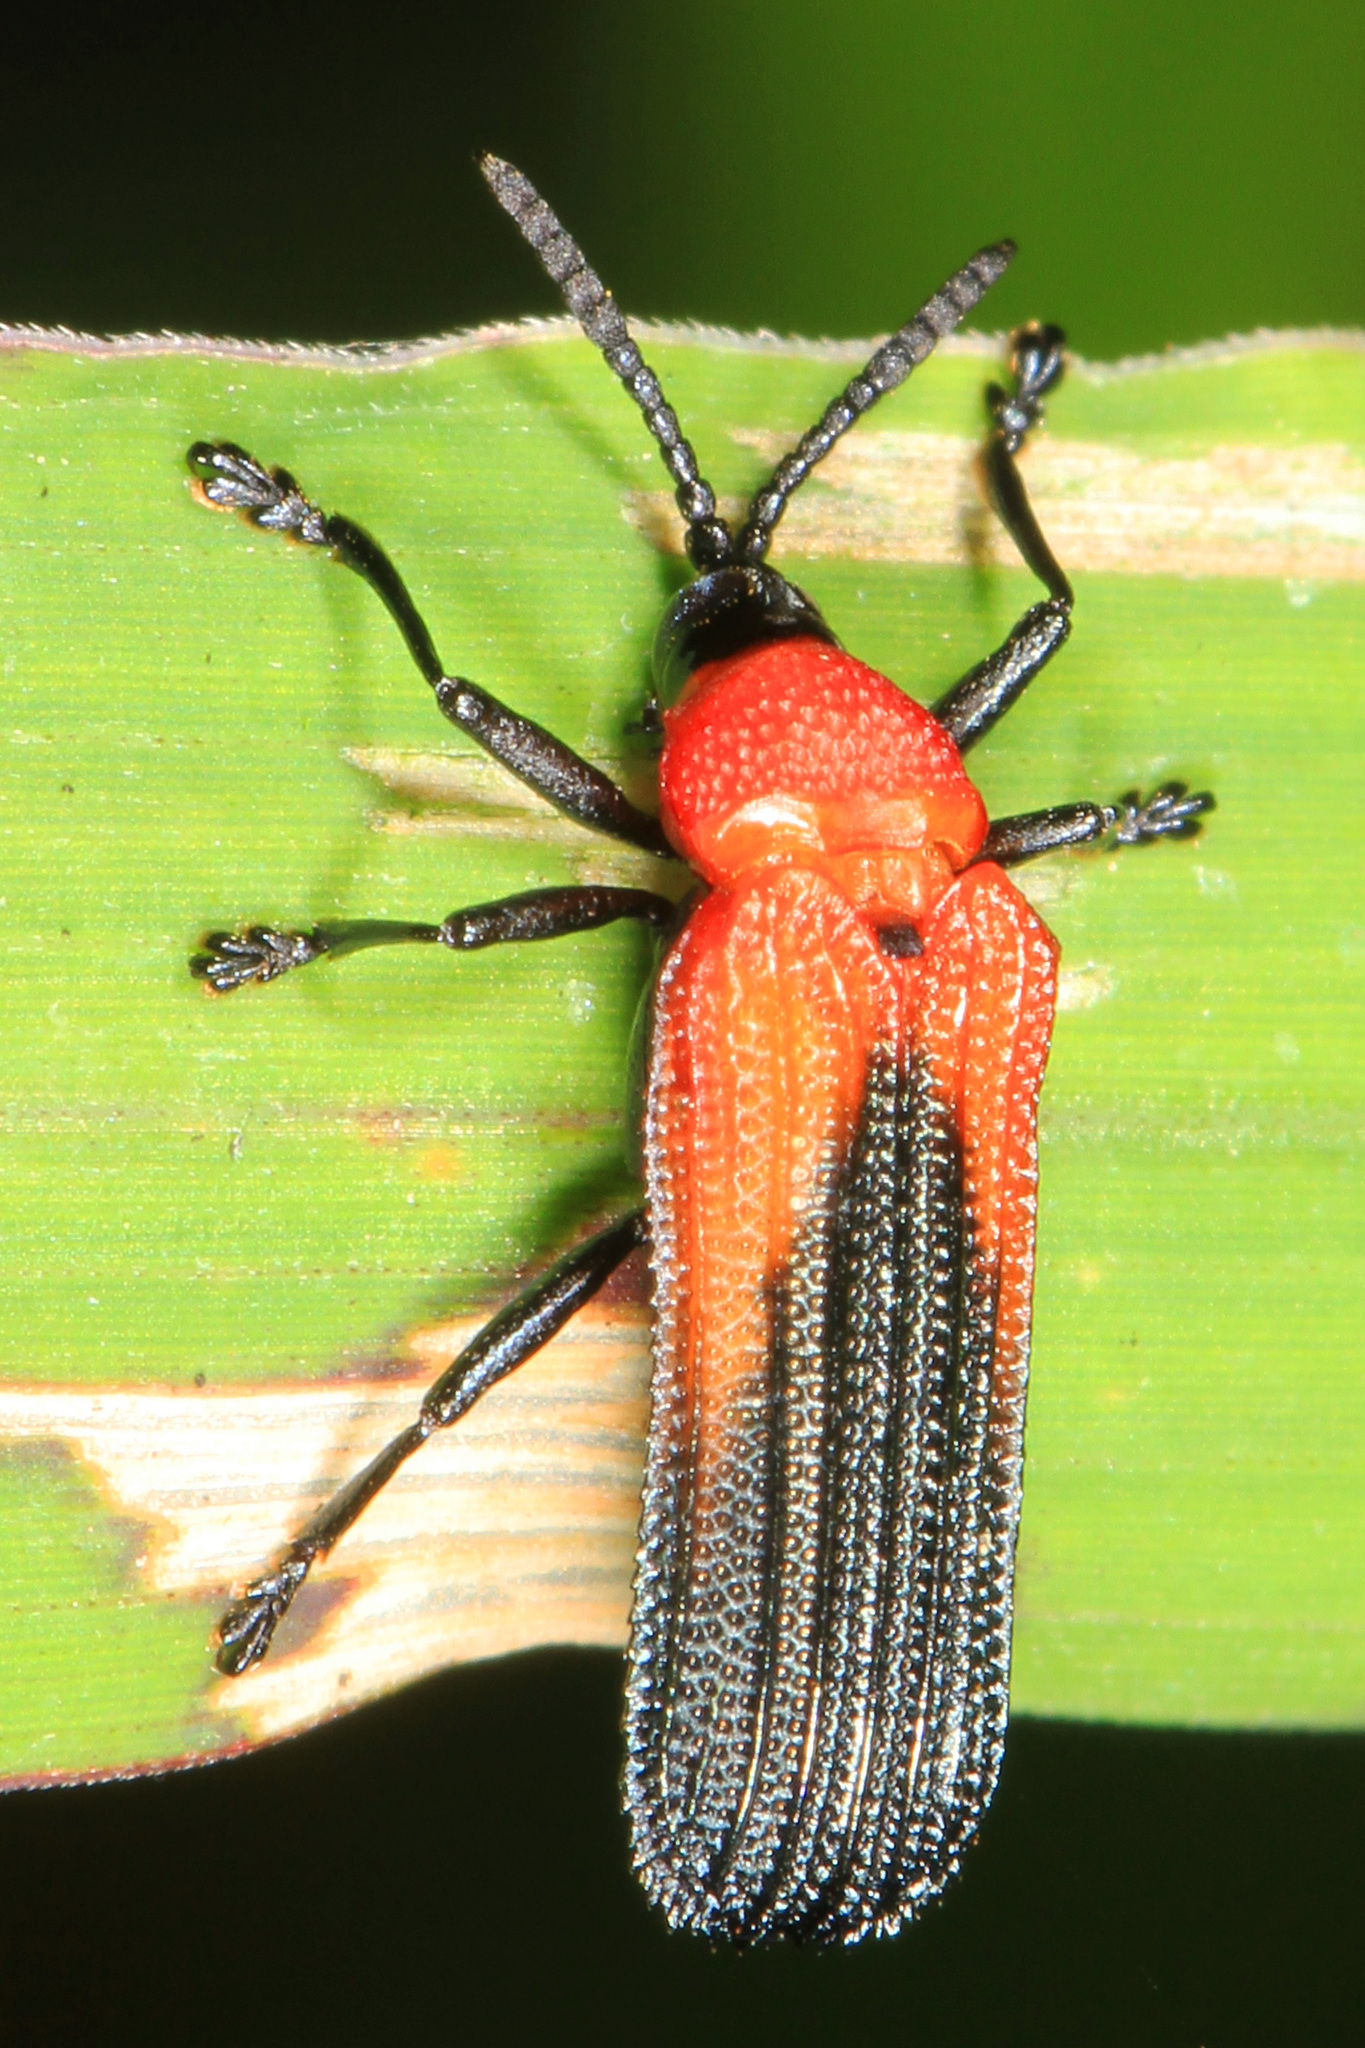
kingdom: Animalia
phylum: Arthropoda
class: Insecta
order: Coleoptera
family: Chrysomelidae
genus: Chalepus
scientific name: Chalepus sanguinicollis
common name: Red-shouldered leaf beetle
